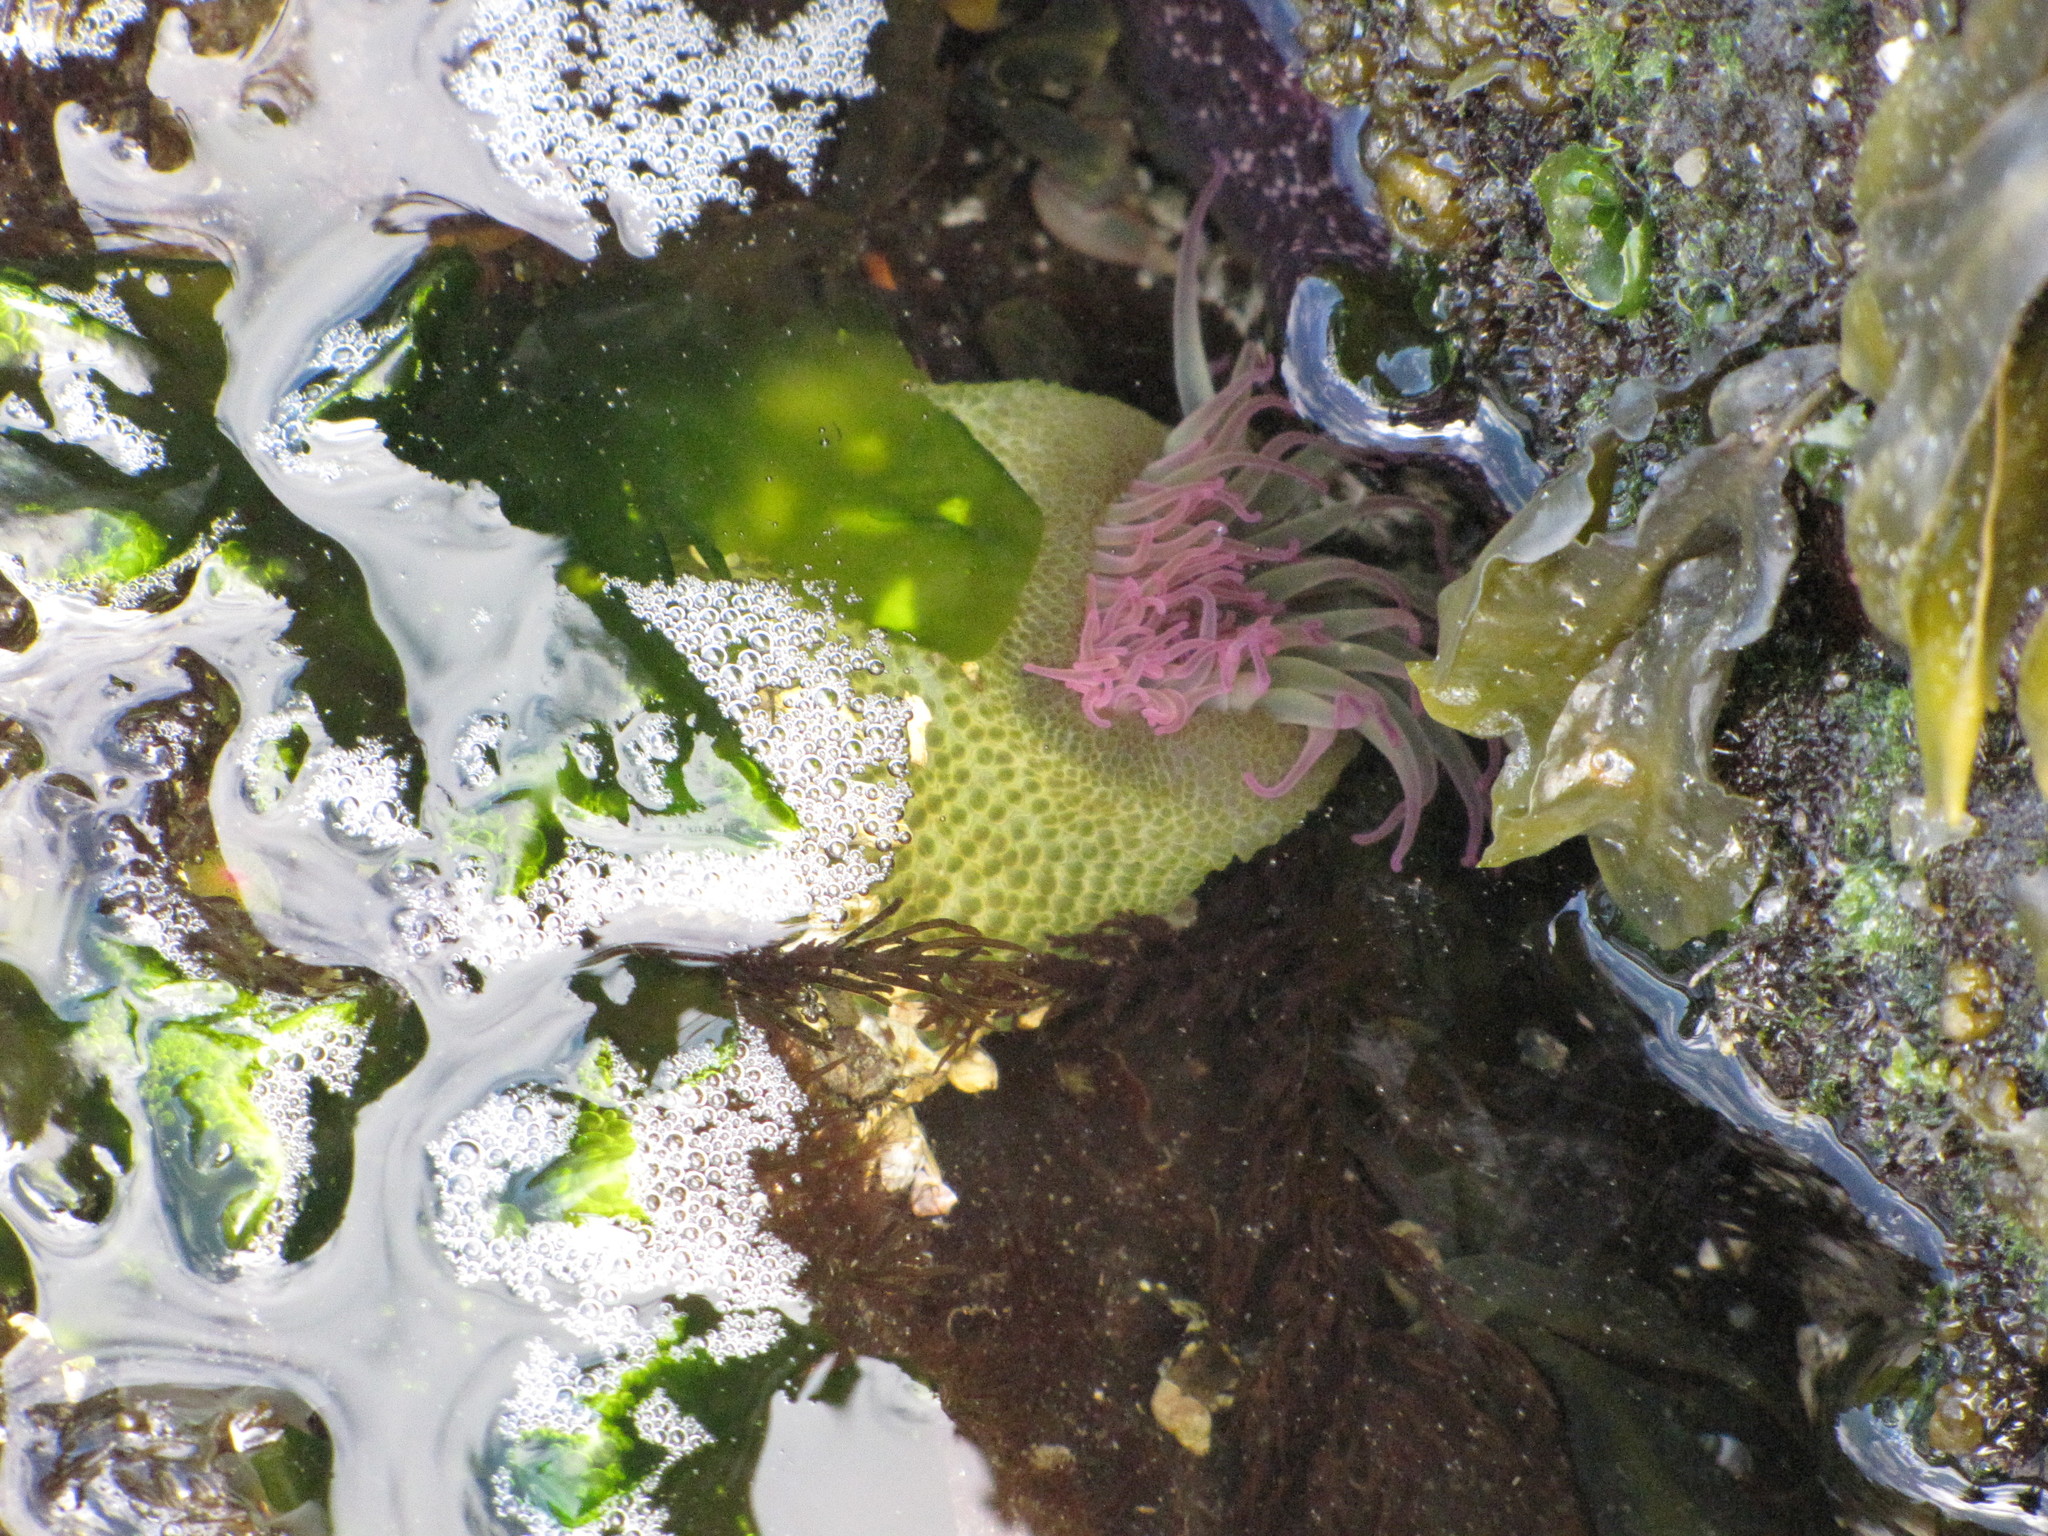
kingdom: Animalia
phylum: Cnidaria
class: Anthozoa
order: Actiniaria
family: Actiniidae
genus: Anthopleura
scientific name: Anthopleura elegantissima
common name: Clonal anemone
